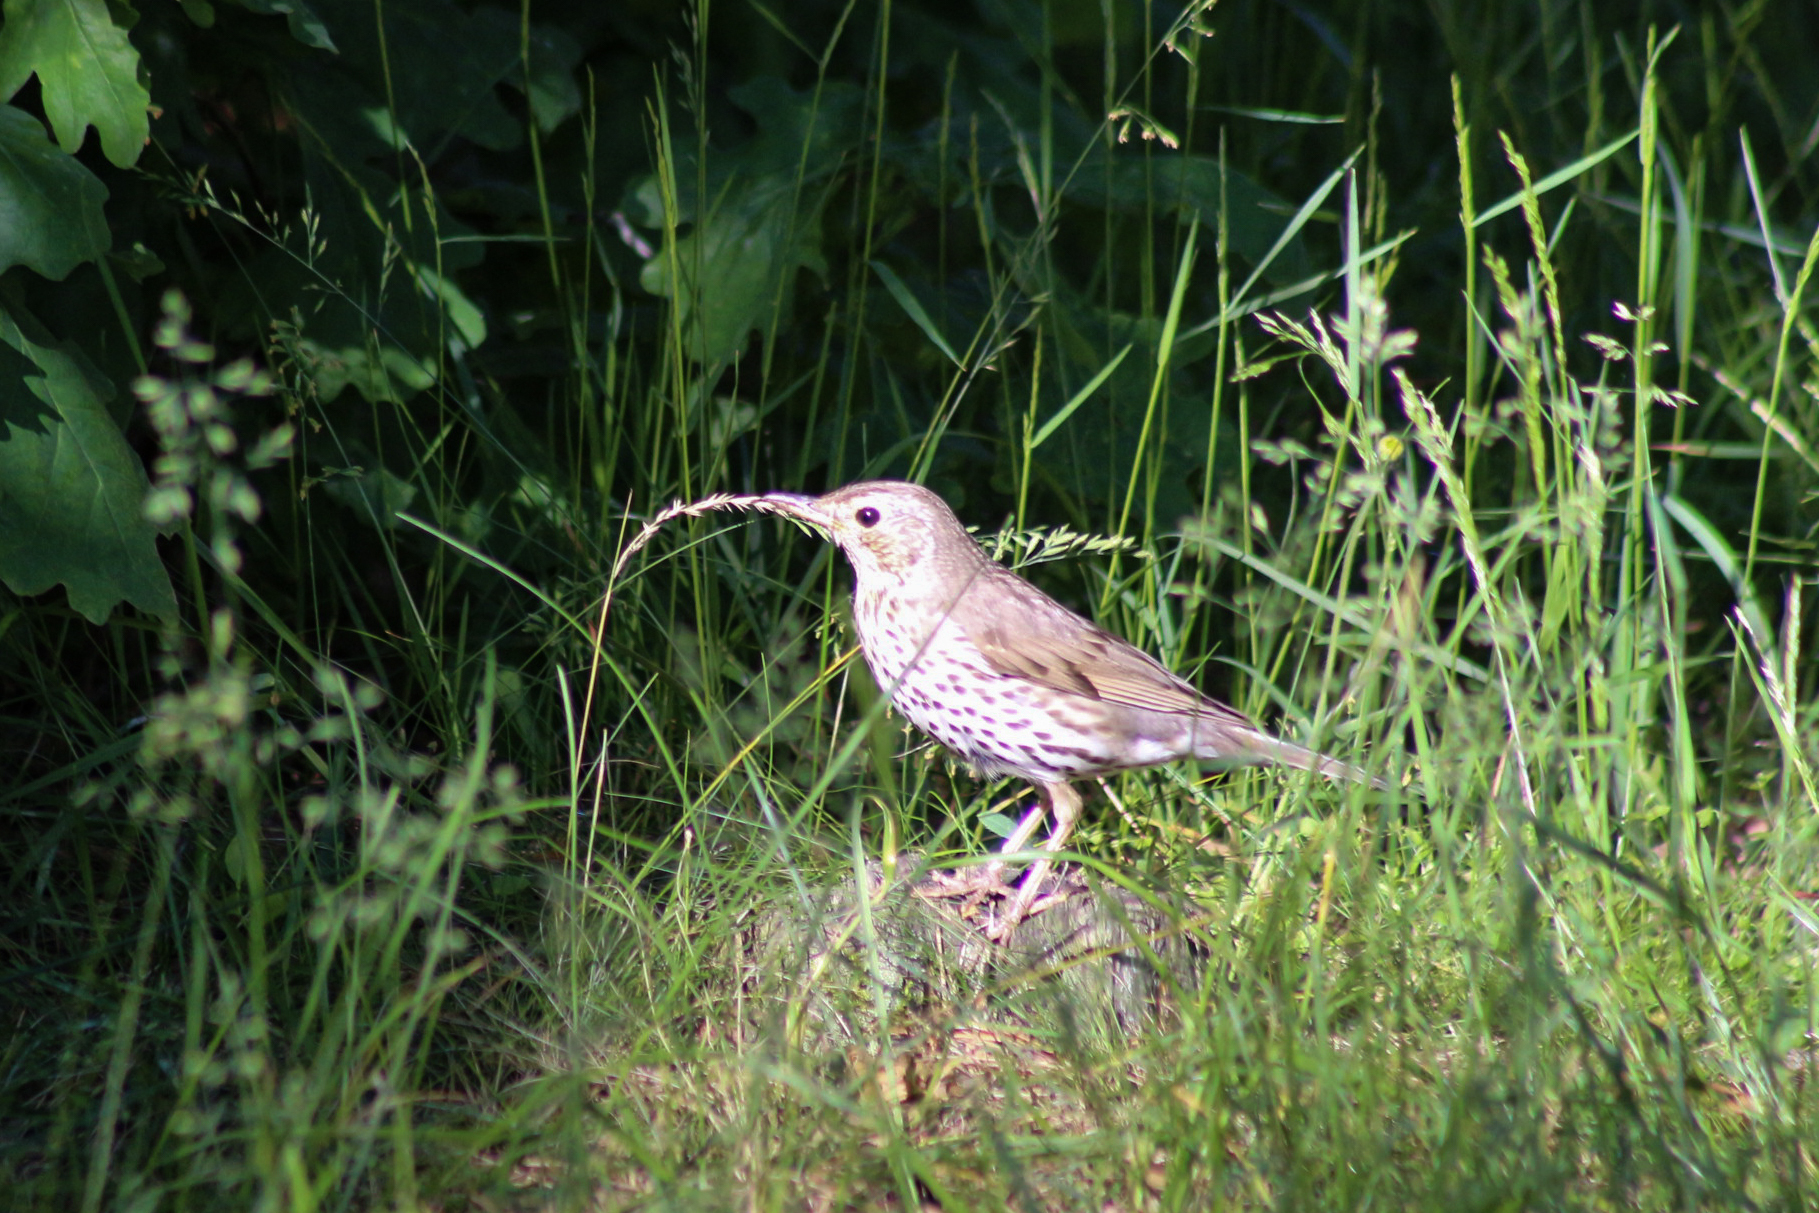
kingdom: Animalia
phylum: Chordata
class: Aves
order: Passeriformes
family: Turdidae
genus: Turdus
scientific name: Turdus philomelos
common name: Song thrush
